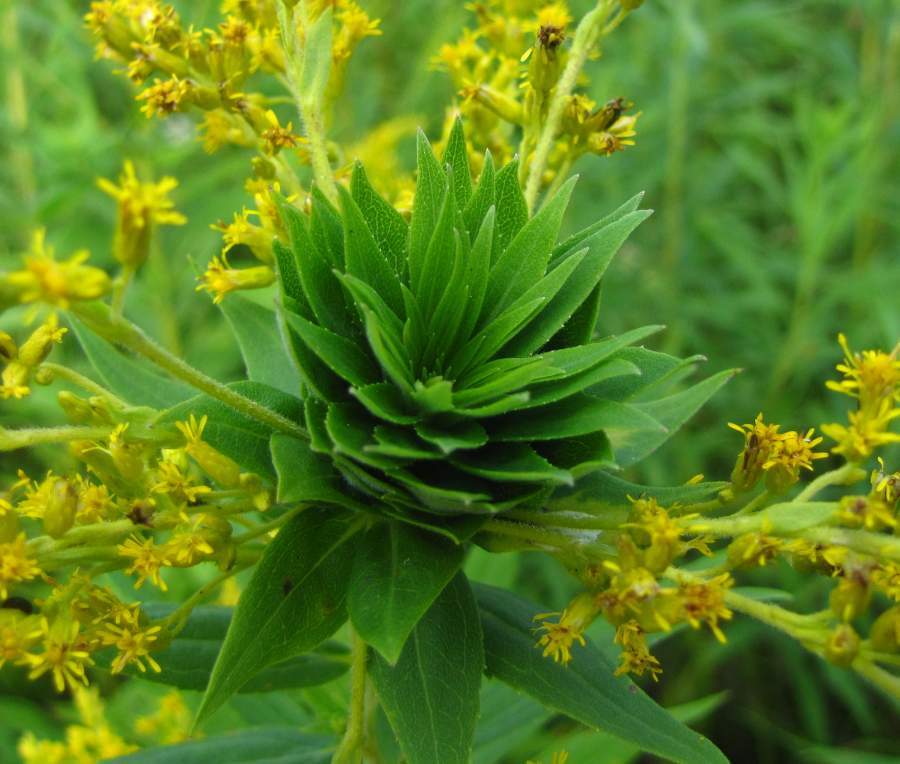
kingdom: Animalia
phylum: Arthropoda
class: Insecta
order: Diptera
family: Cecidomyiidae
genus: Rhopalomyia
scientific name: Rhopalomyia solidaginis
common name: Goldenrod bunch gall midge
